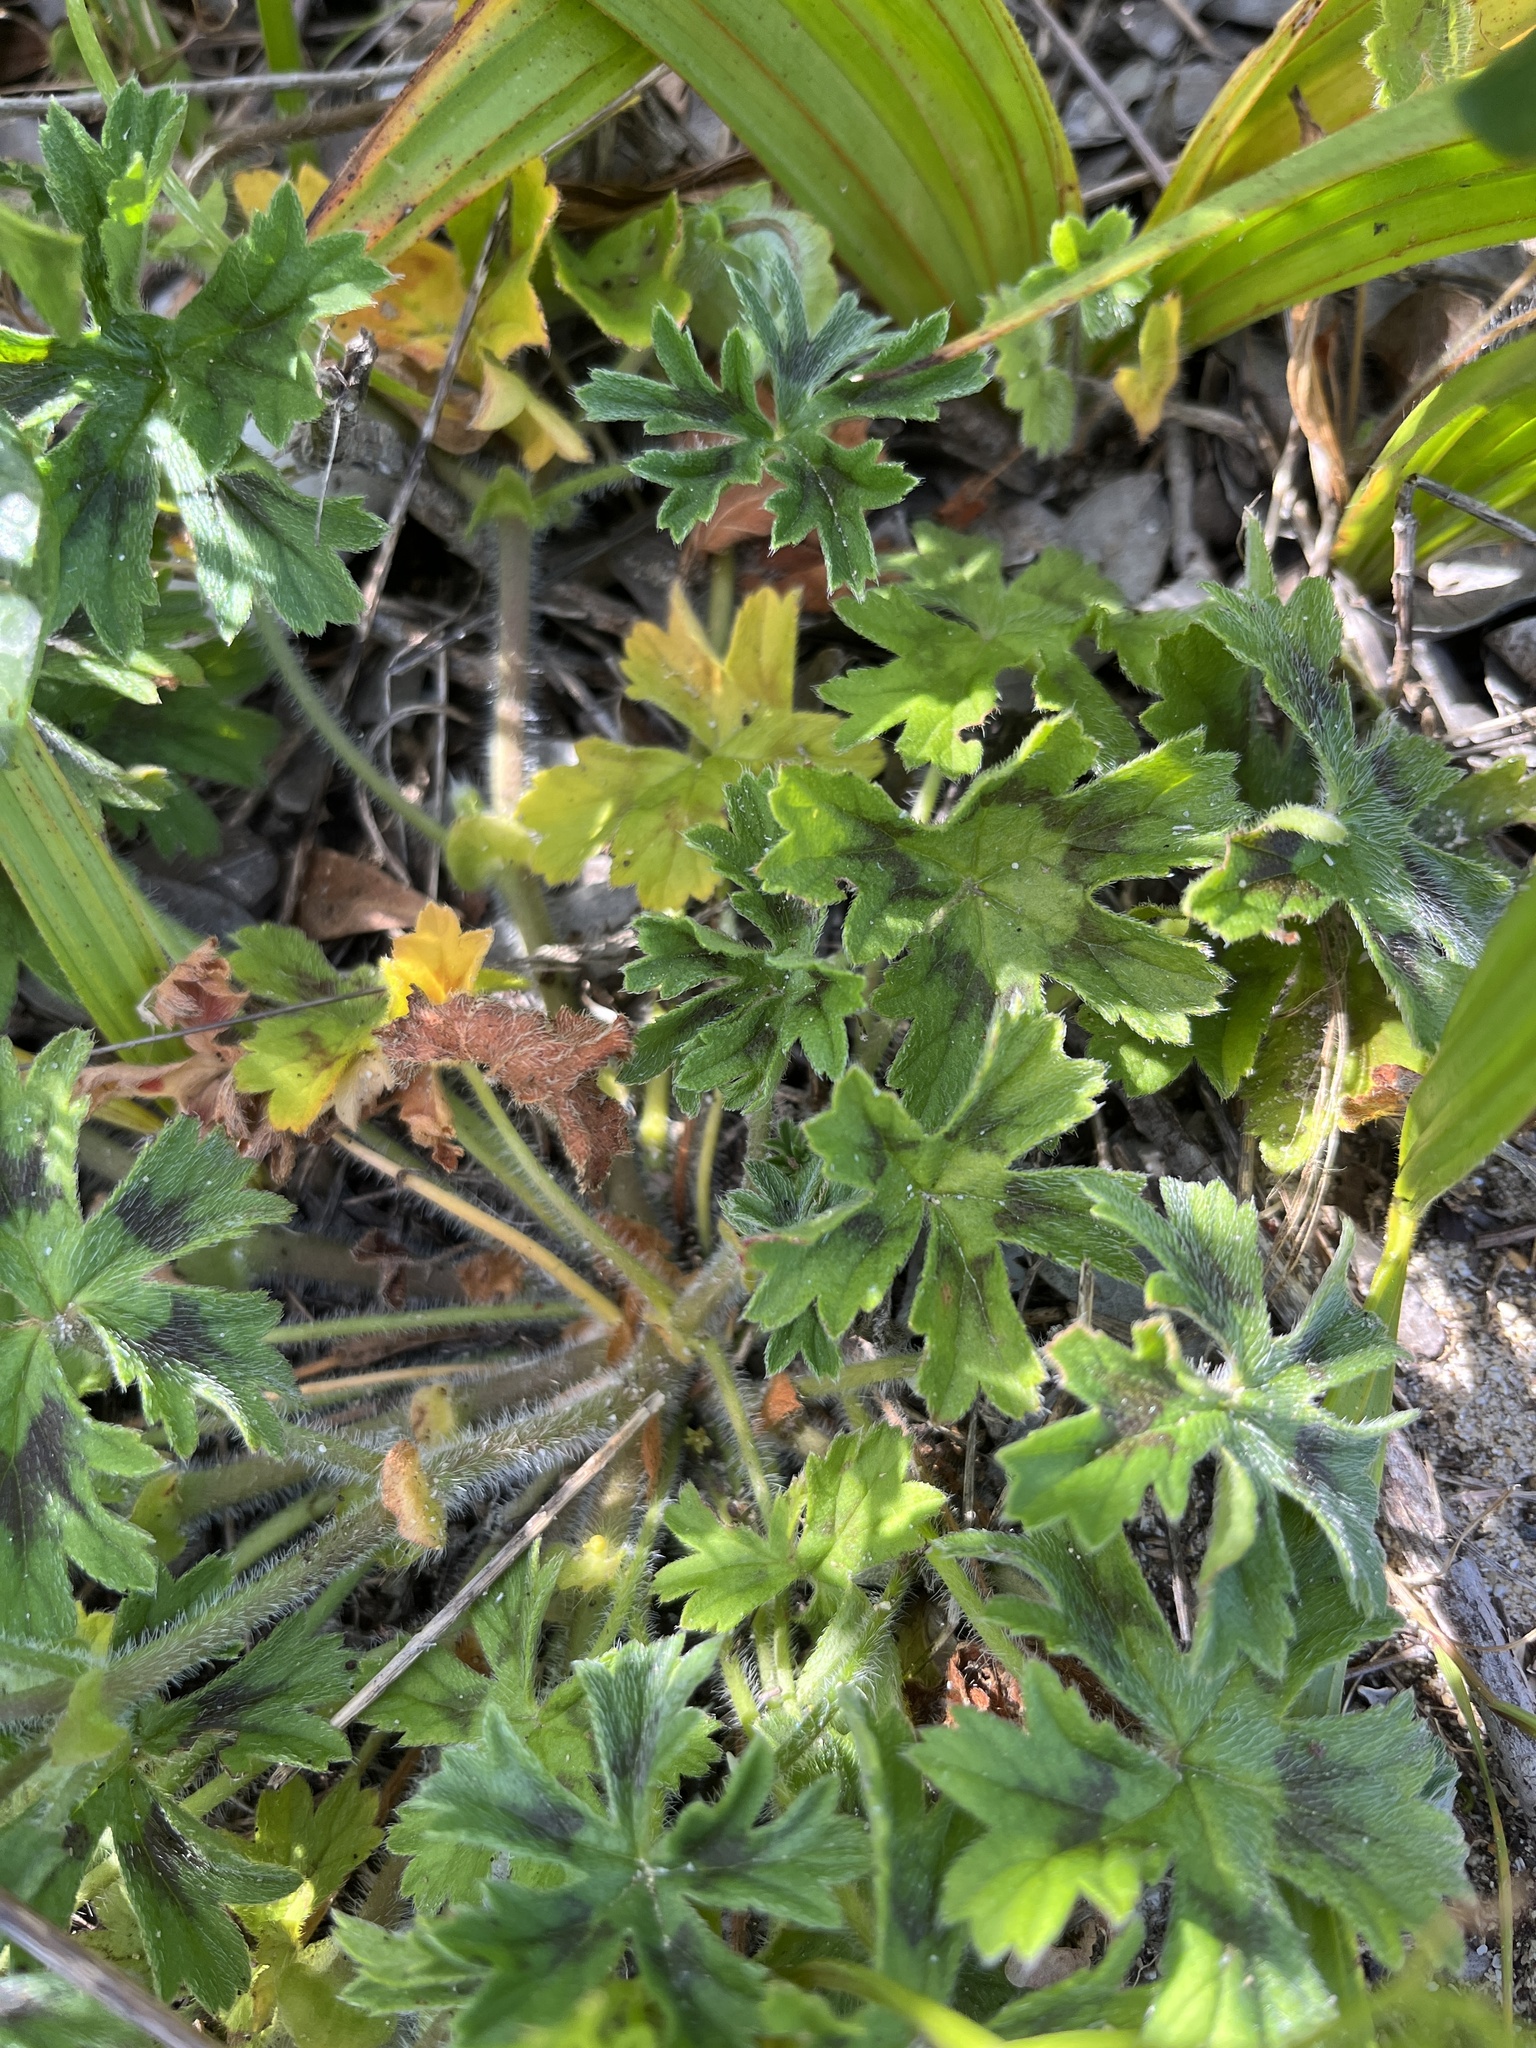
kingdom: Plantae
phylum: Tracheophyta
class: Magnoliopsida
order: Geraniales
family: Geraniaceae
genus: Pelargonium
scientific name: Pelargonium alchemilloides
